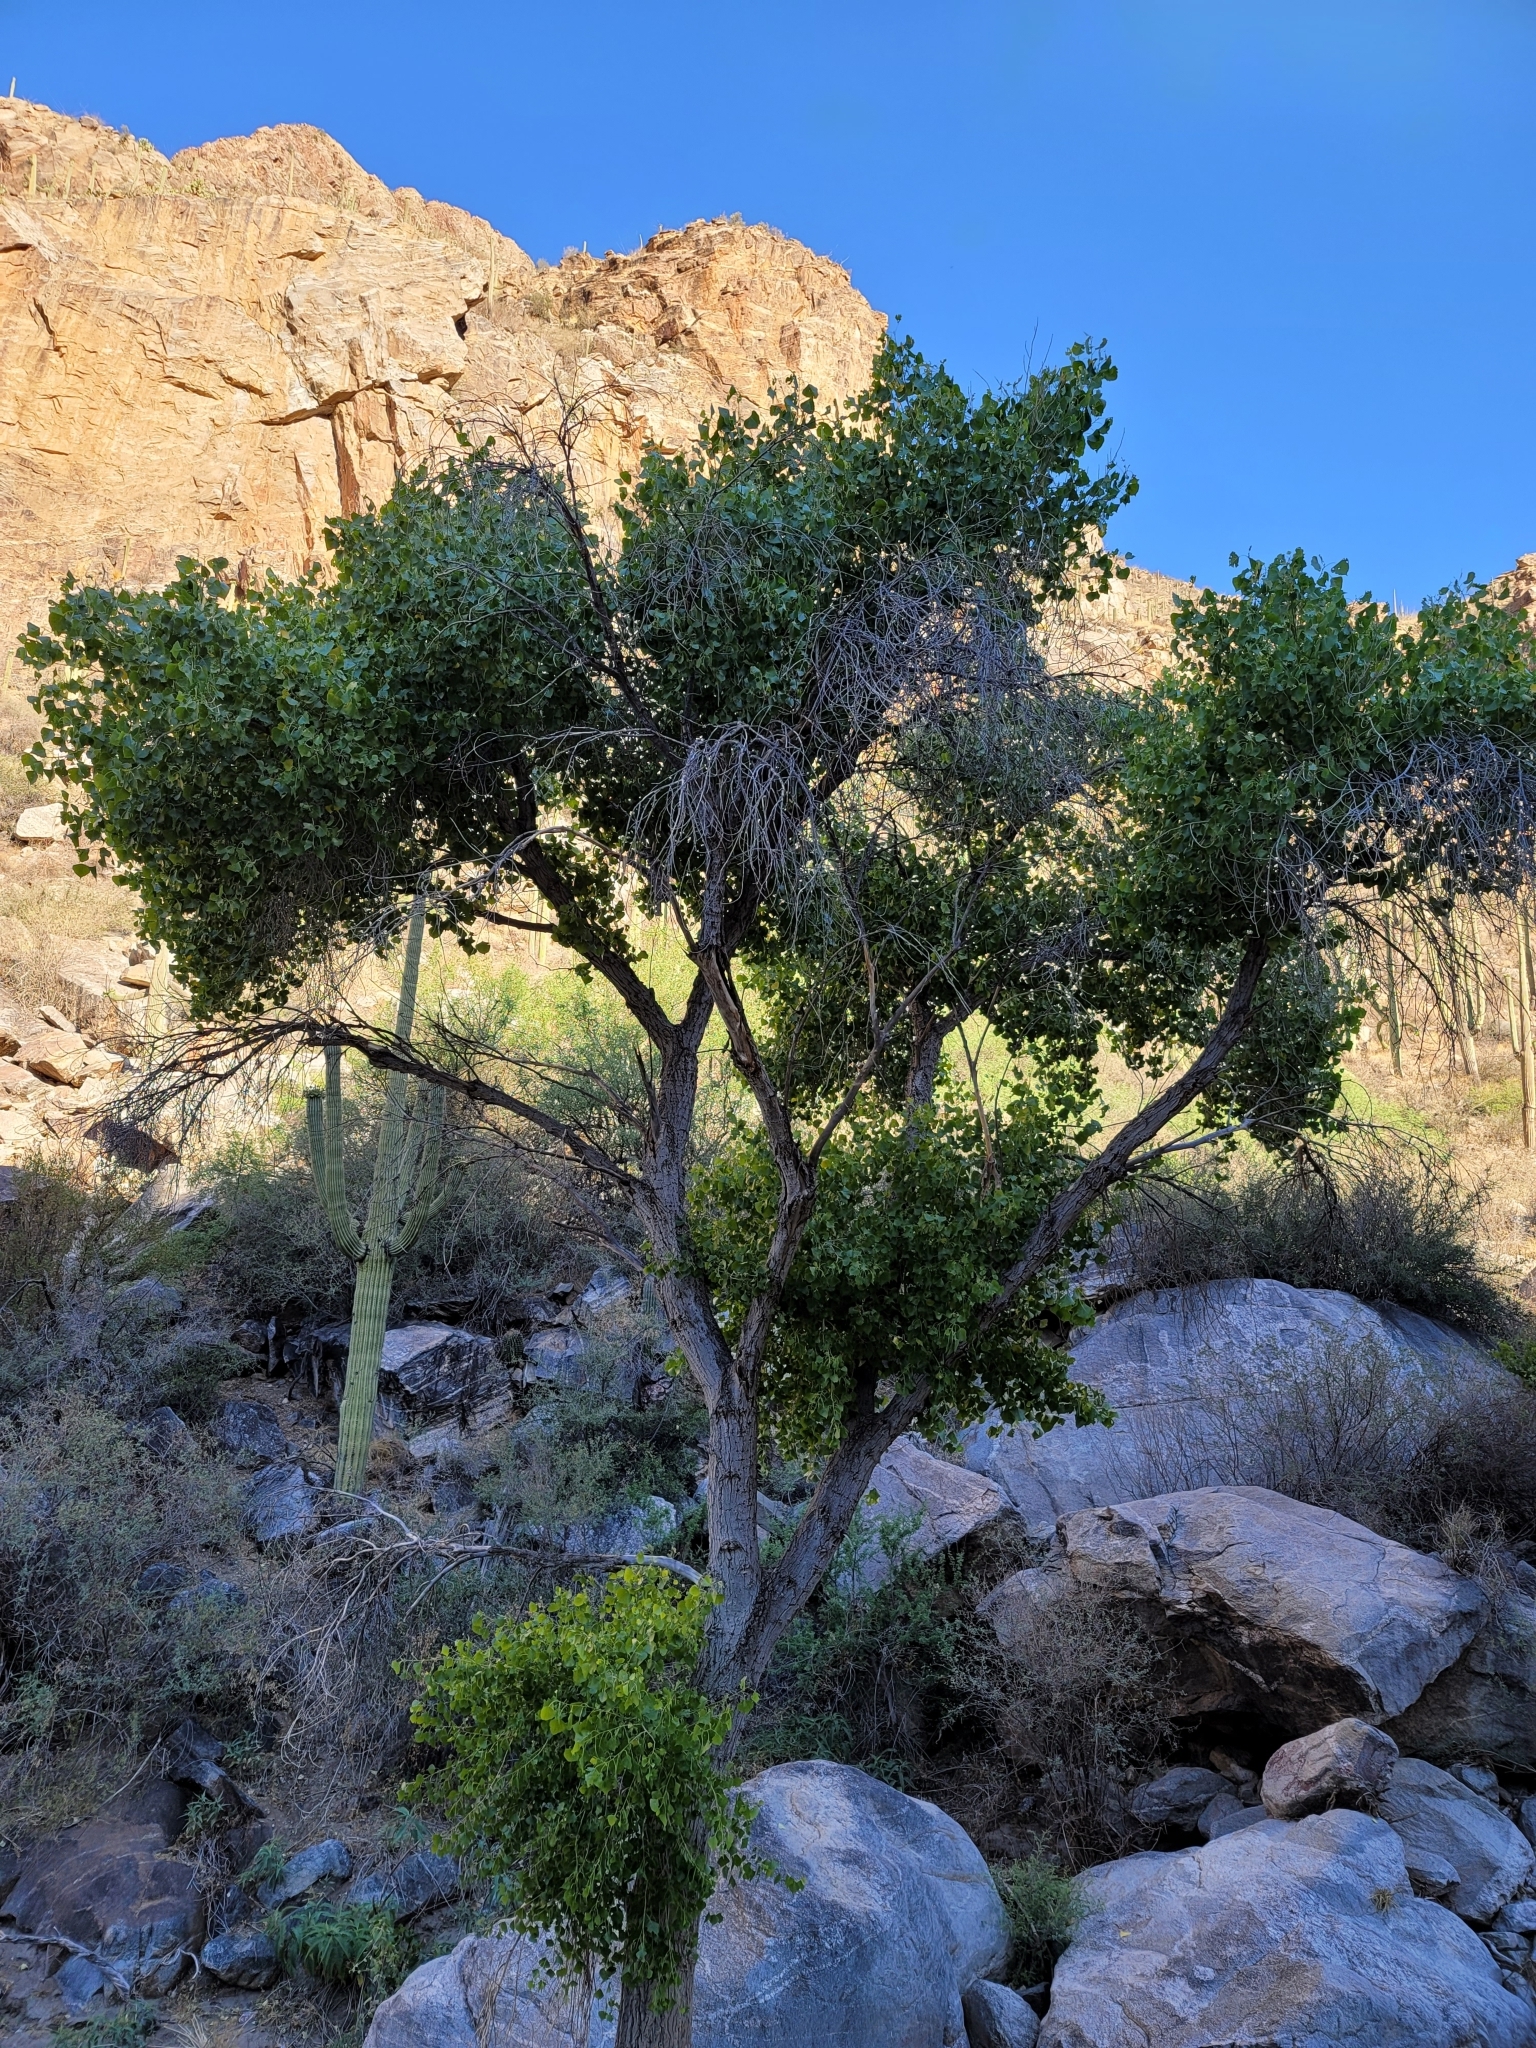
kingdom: Plantae
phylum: Tracheophyta
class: Magnoliopsida
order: Malpighiales
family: Salicaceae
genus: Populus
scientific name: Populus fremontii
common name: Fremont's cottonwood
